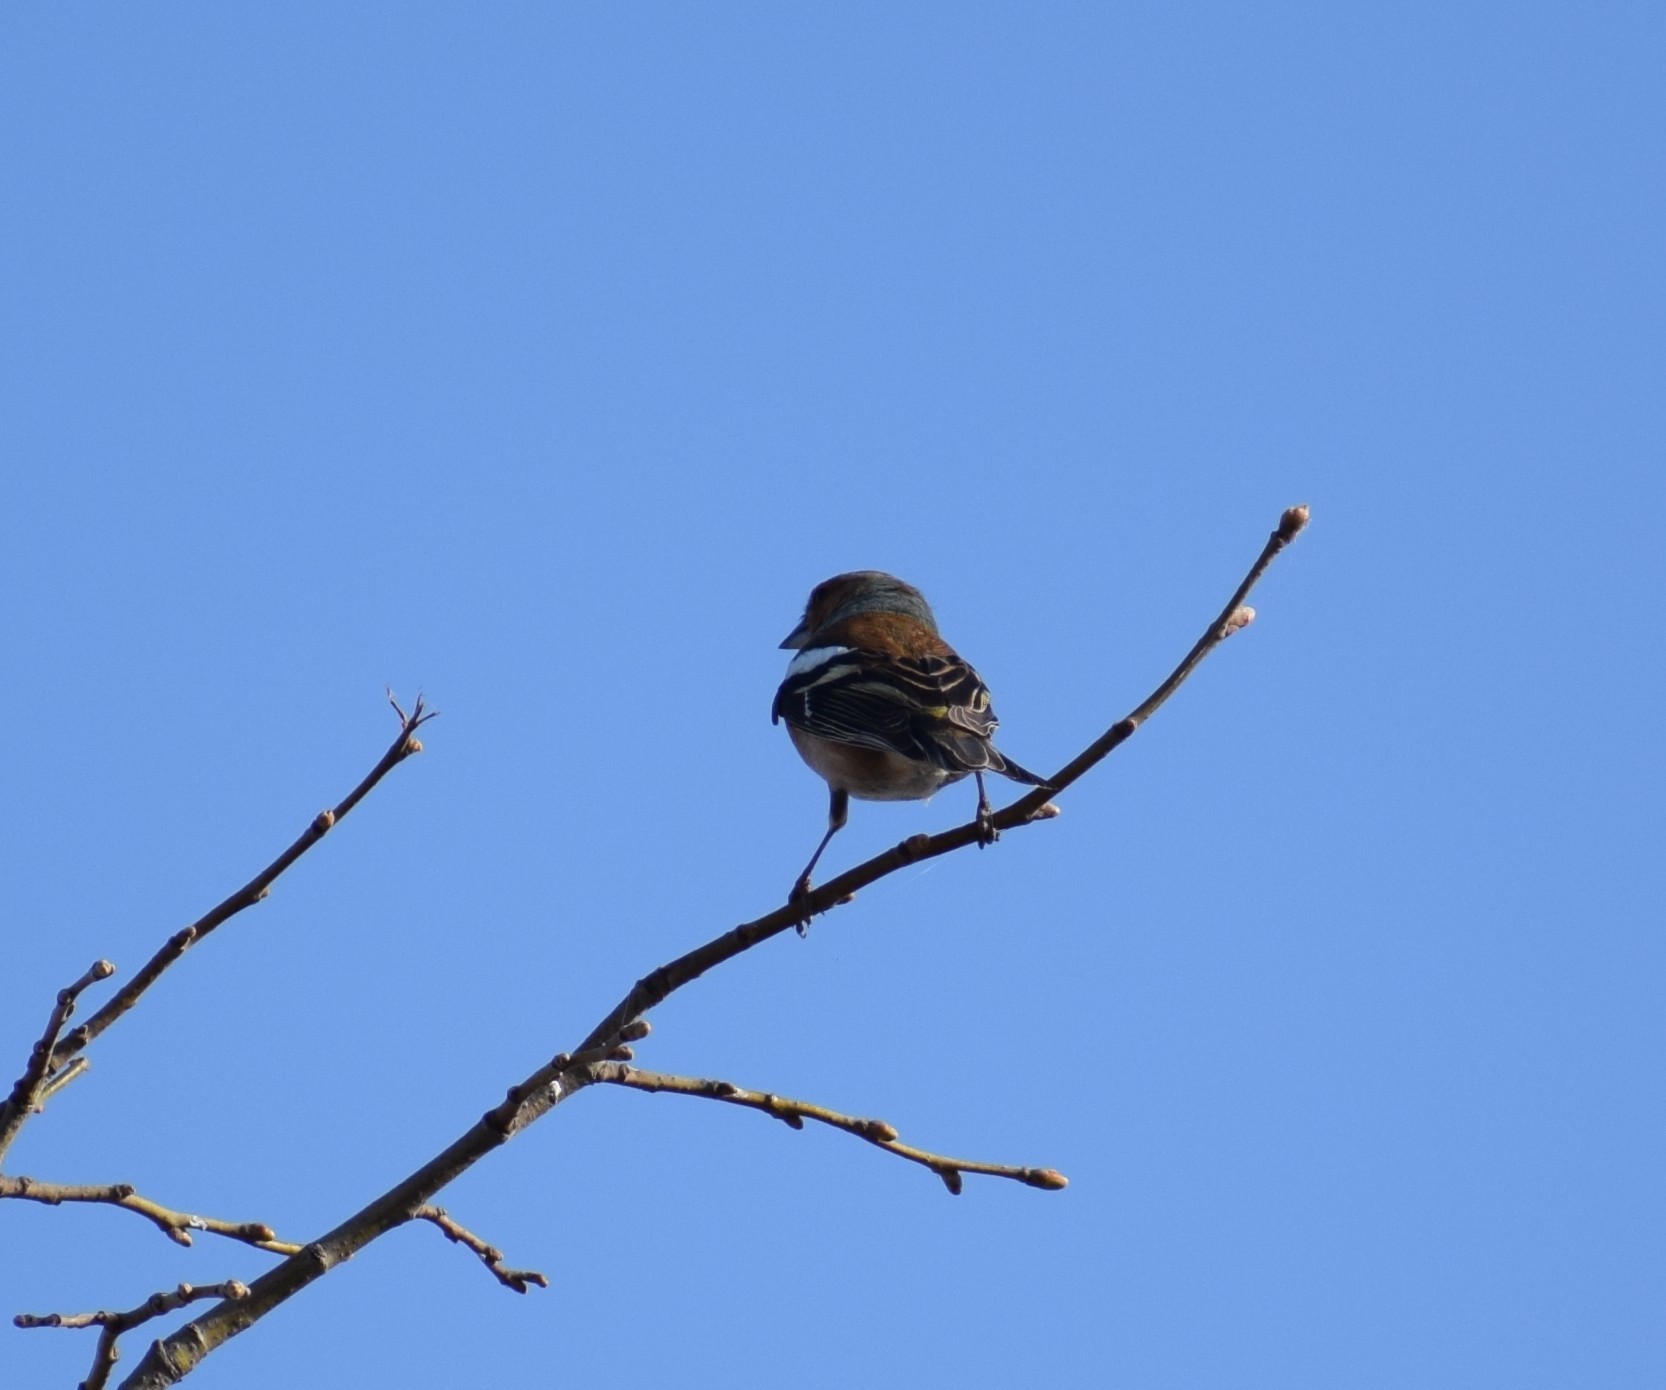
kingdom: Animalia
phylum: Chordata
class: Aves
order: Passeriformes
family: Fringillidae
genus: Fringilla
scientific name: Fringilla coelebs
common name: Common chaffinch
